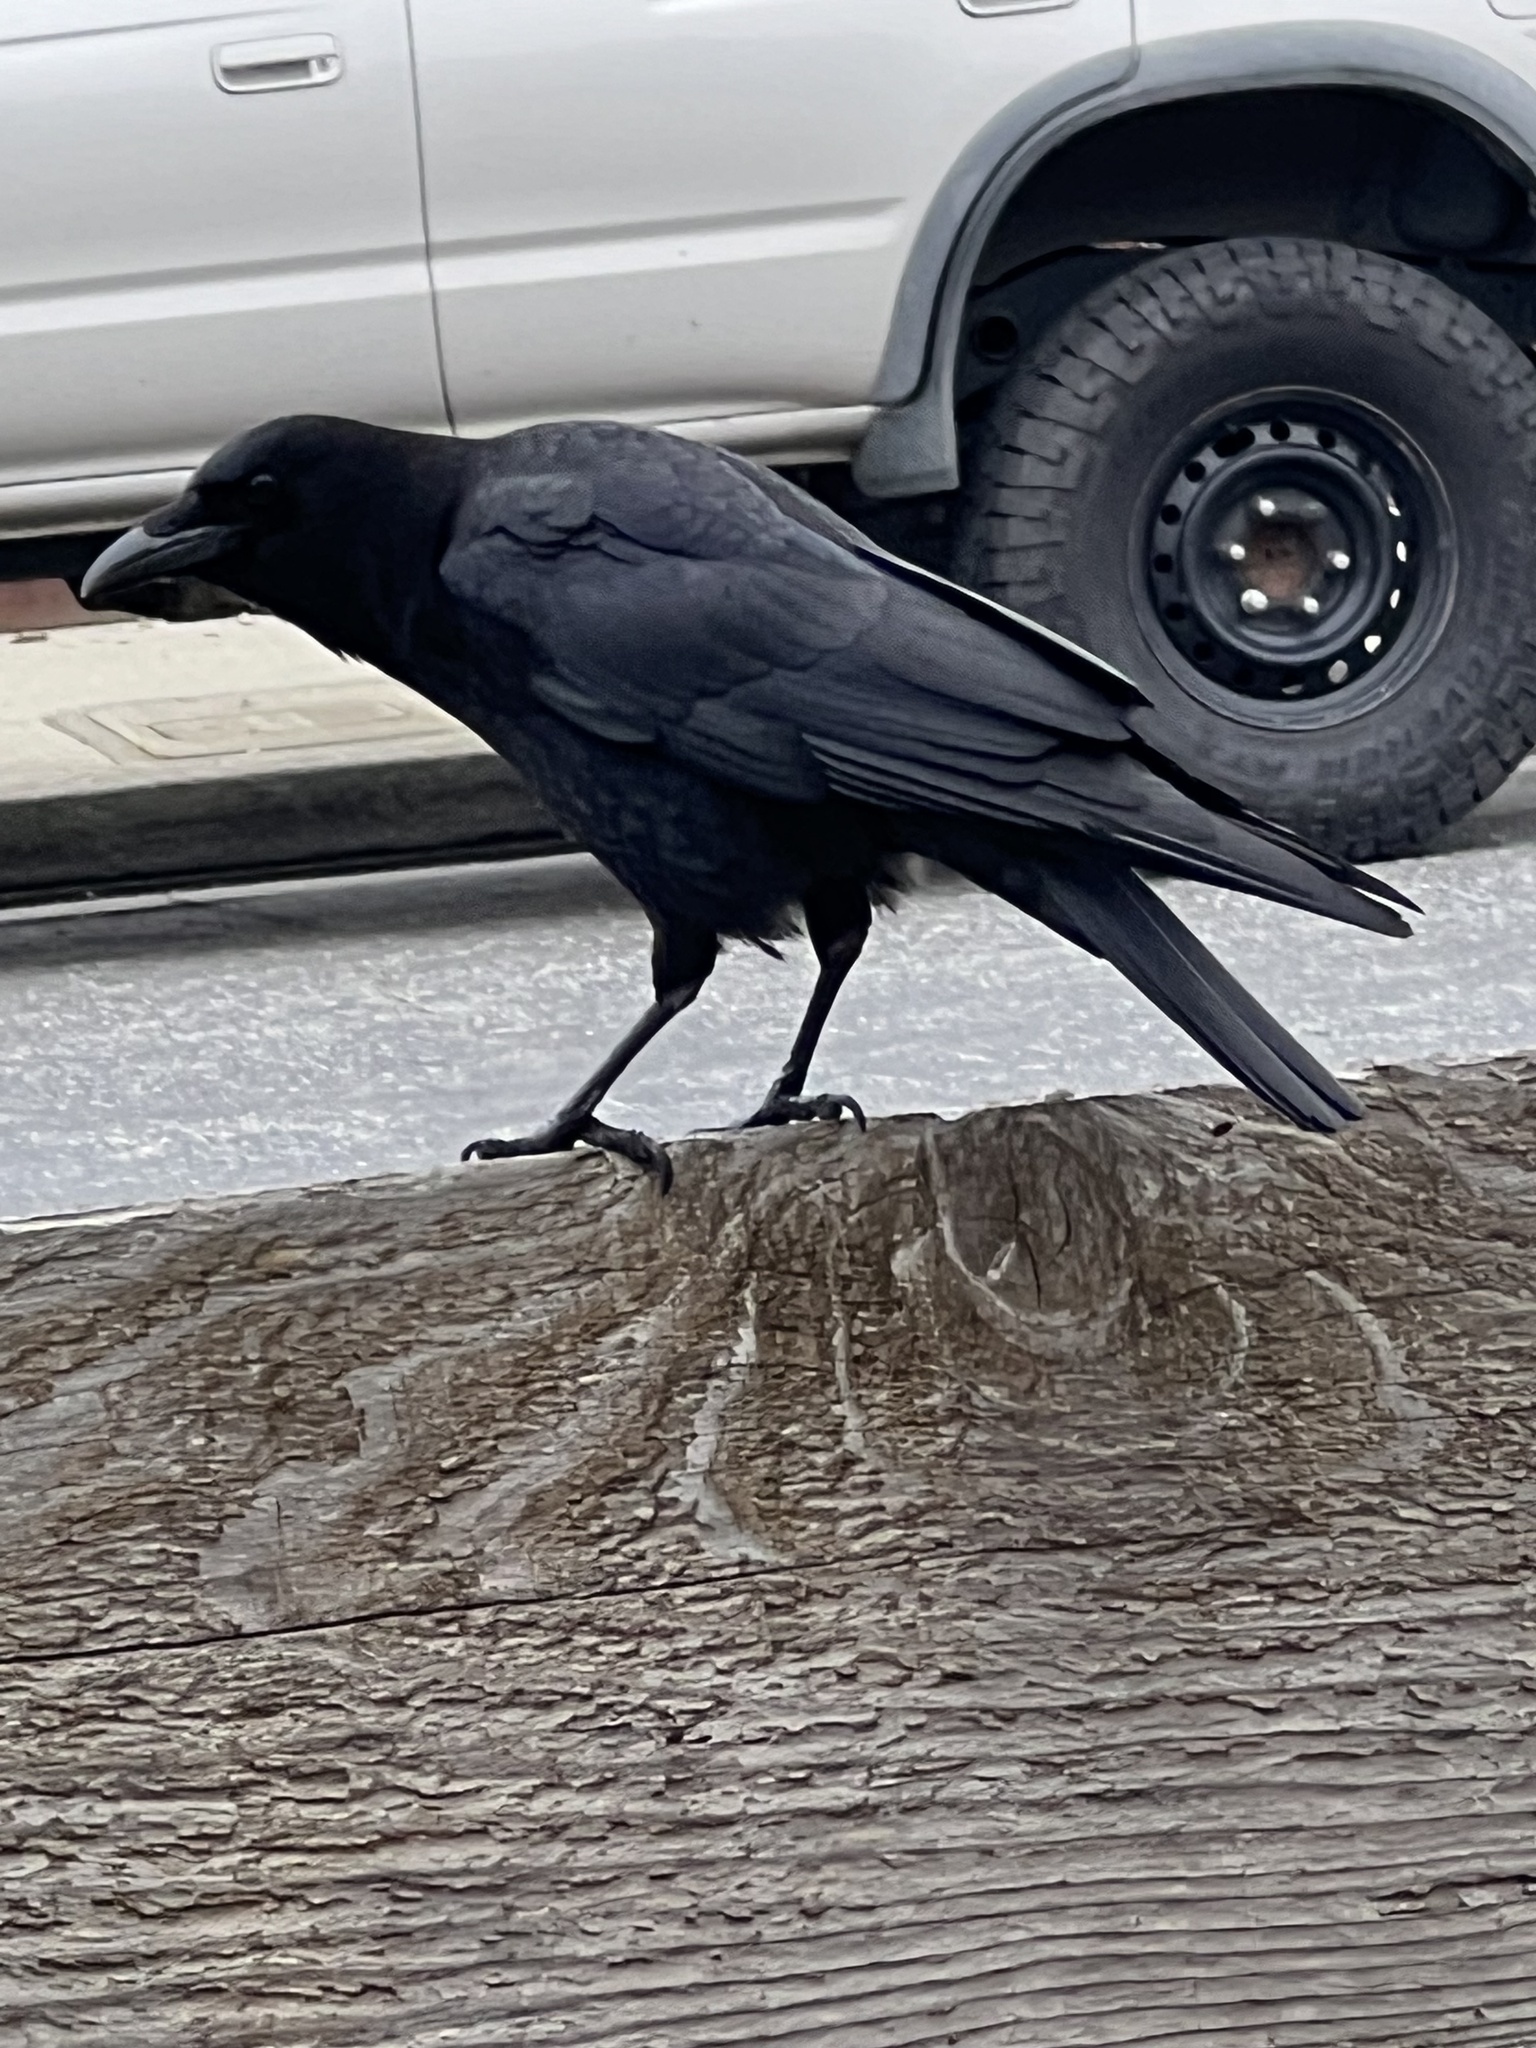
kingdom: Animalia
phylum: Chordata
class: Aves
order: Passeriformes
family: Corvidae
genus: Corvus
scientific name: Corvus brachyrhynchos
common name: American crow
